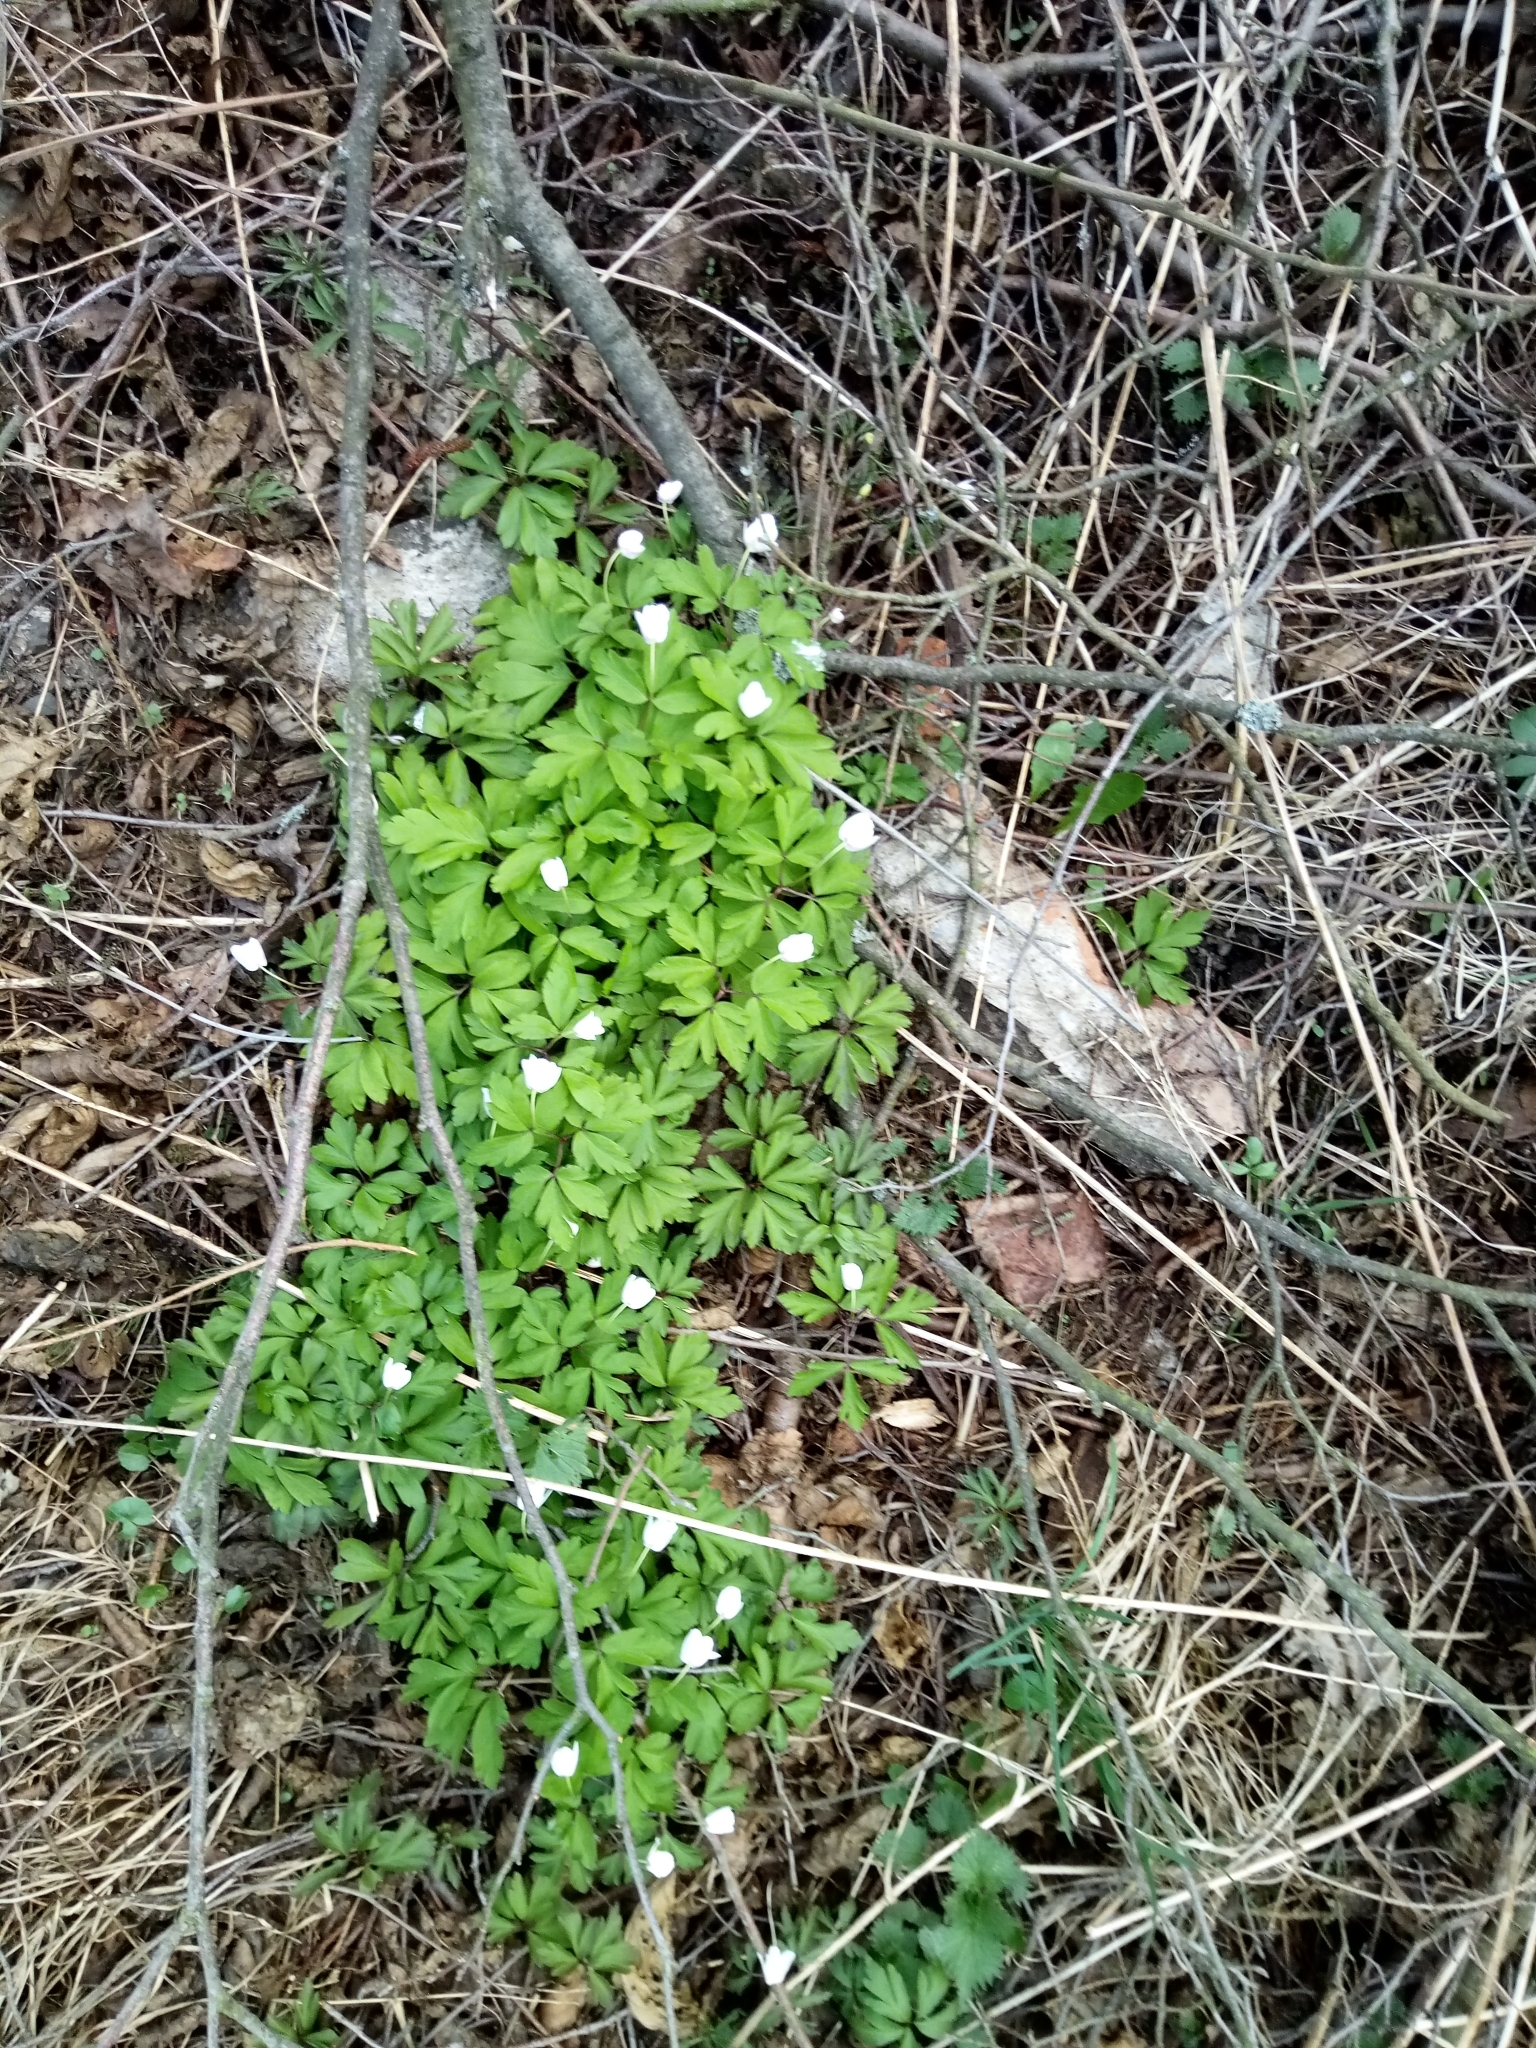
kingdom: Plantae
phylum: Tracheophyta
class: Magnoliopsida
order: Ranunculales
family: Ranunculaceae
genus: Anemone
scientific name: Anemone nemorosa
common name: Wood anemone
